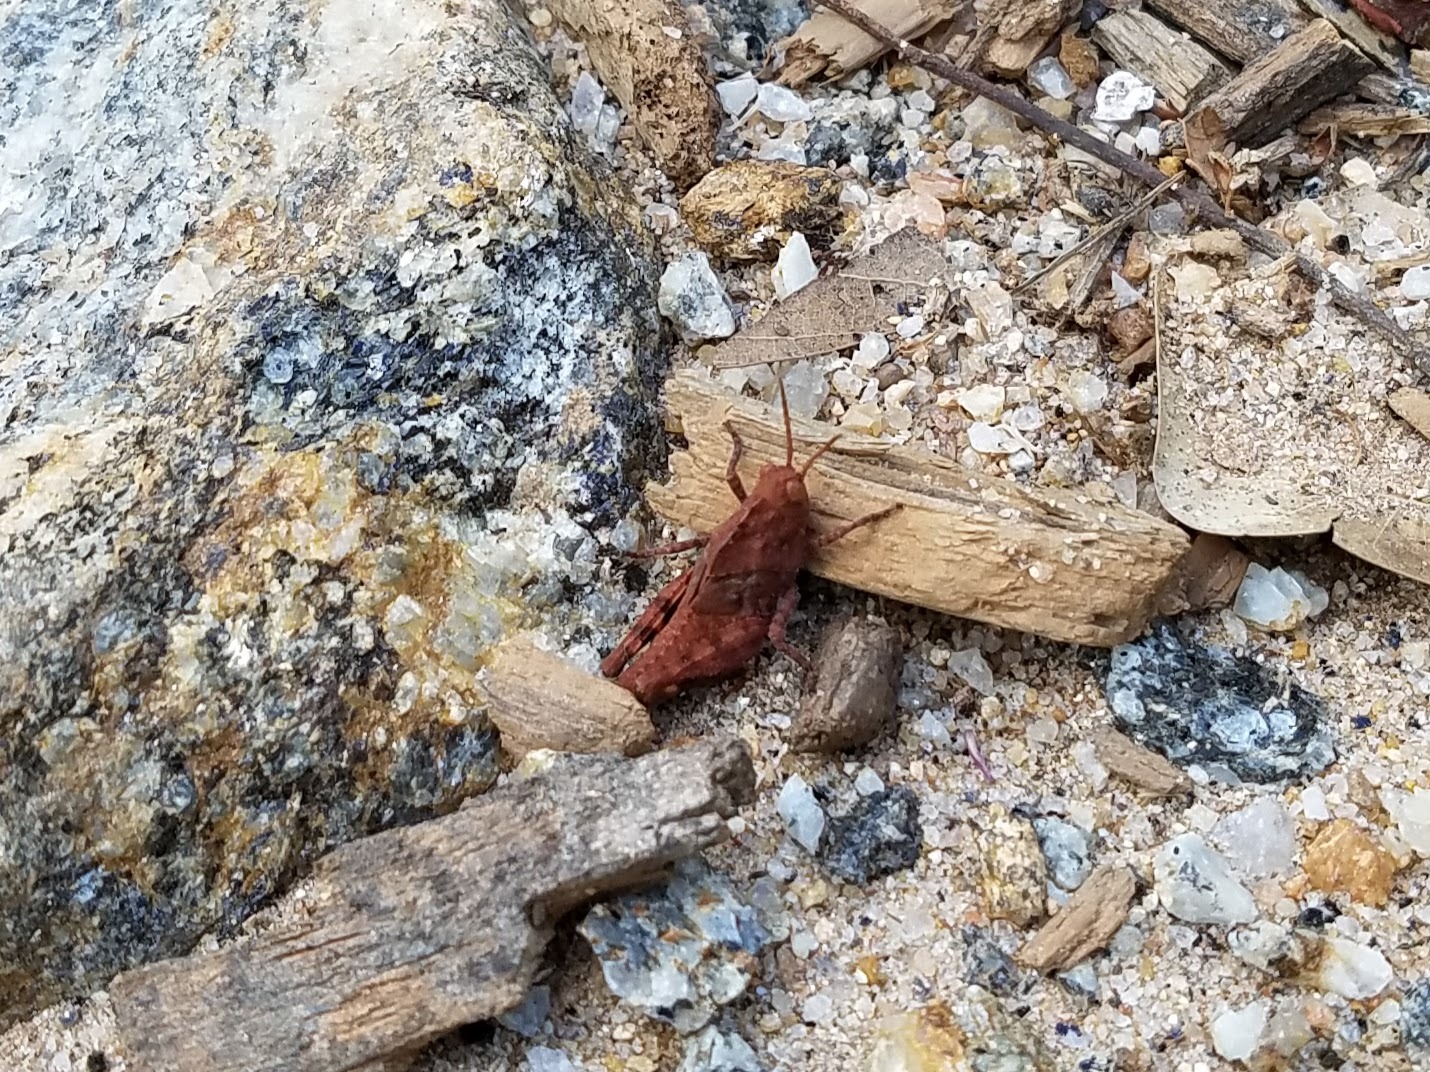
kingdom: Animalia
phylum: Arthropoda
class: Insecta
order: Orthoptera
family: Acrididae
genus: Dissosteira
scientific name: Dissosteira carolina
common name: Carolina grasshopper
